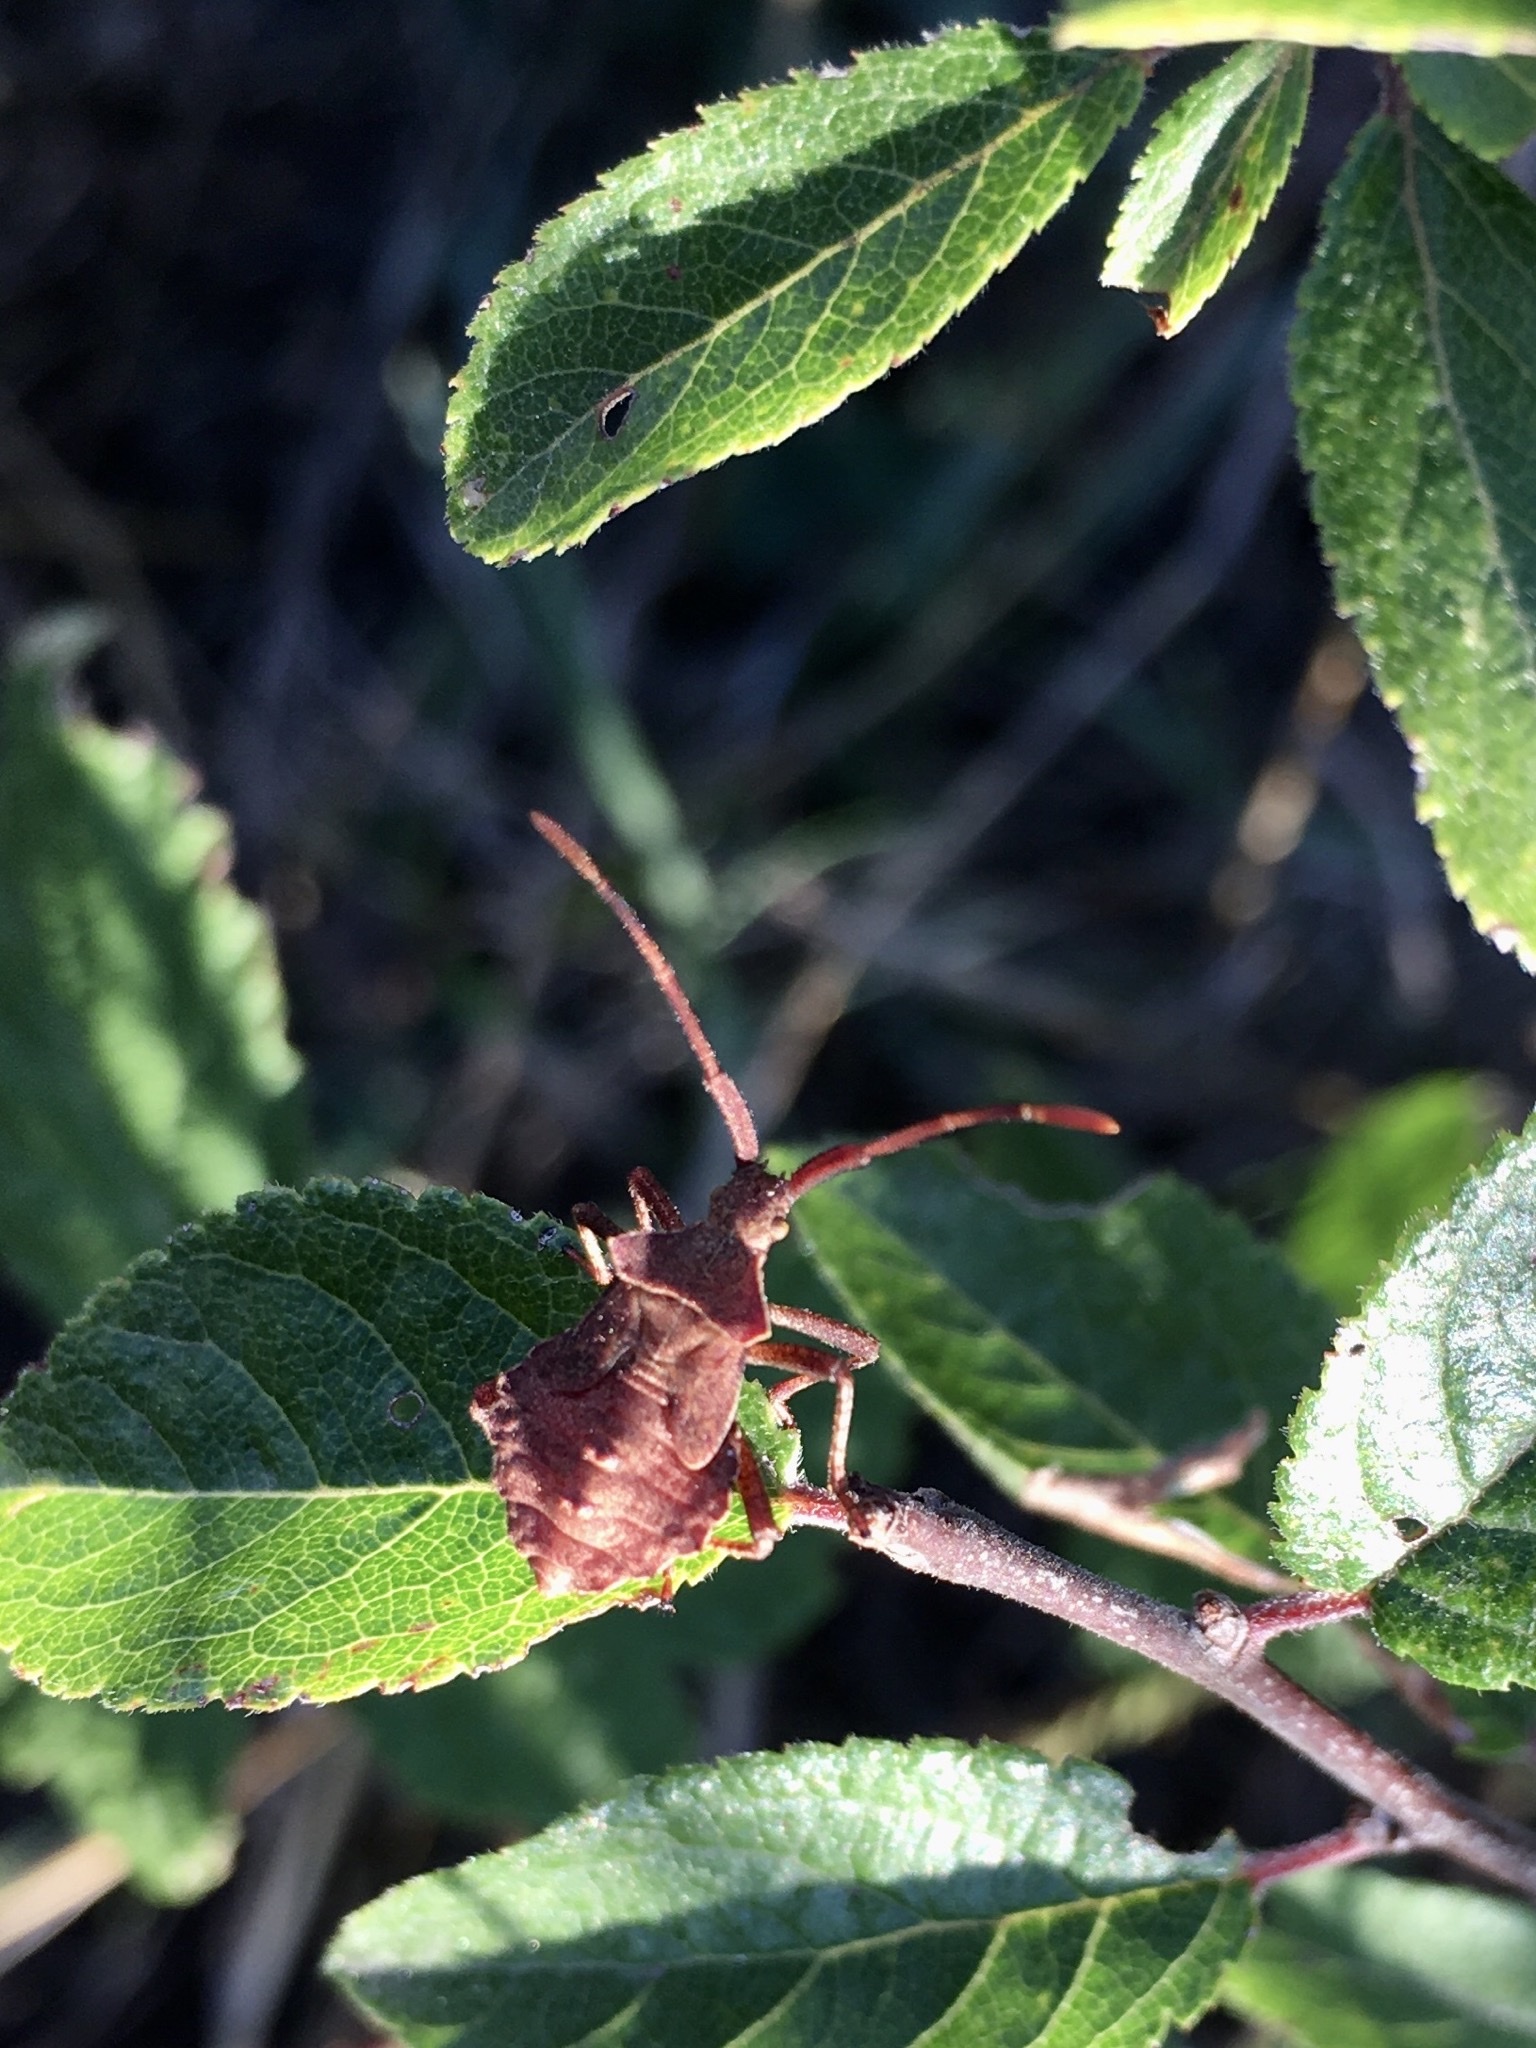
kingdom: Animalia
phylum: Arthropoda
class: Insecta
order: Hemiptera
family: Coreidae
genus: Coreus
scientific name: Coreus marginatus
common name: Dock bug
